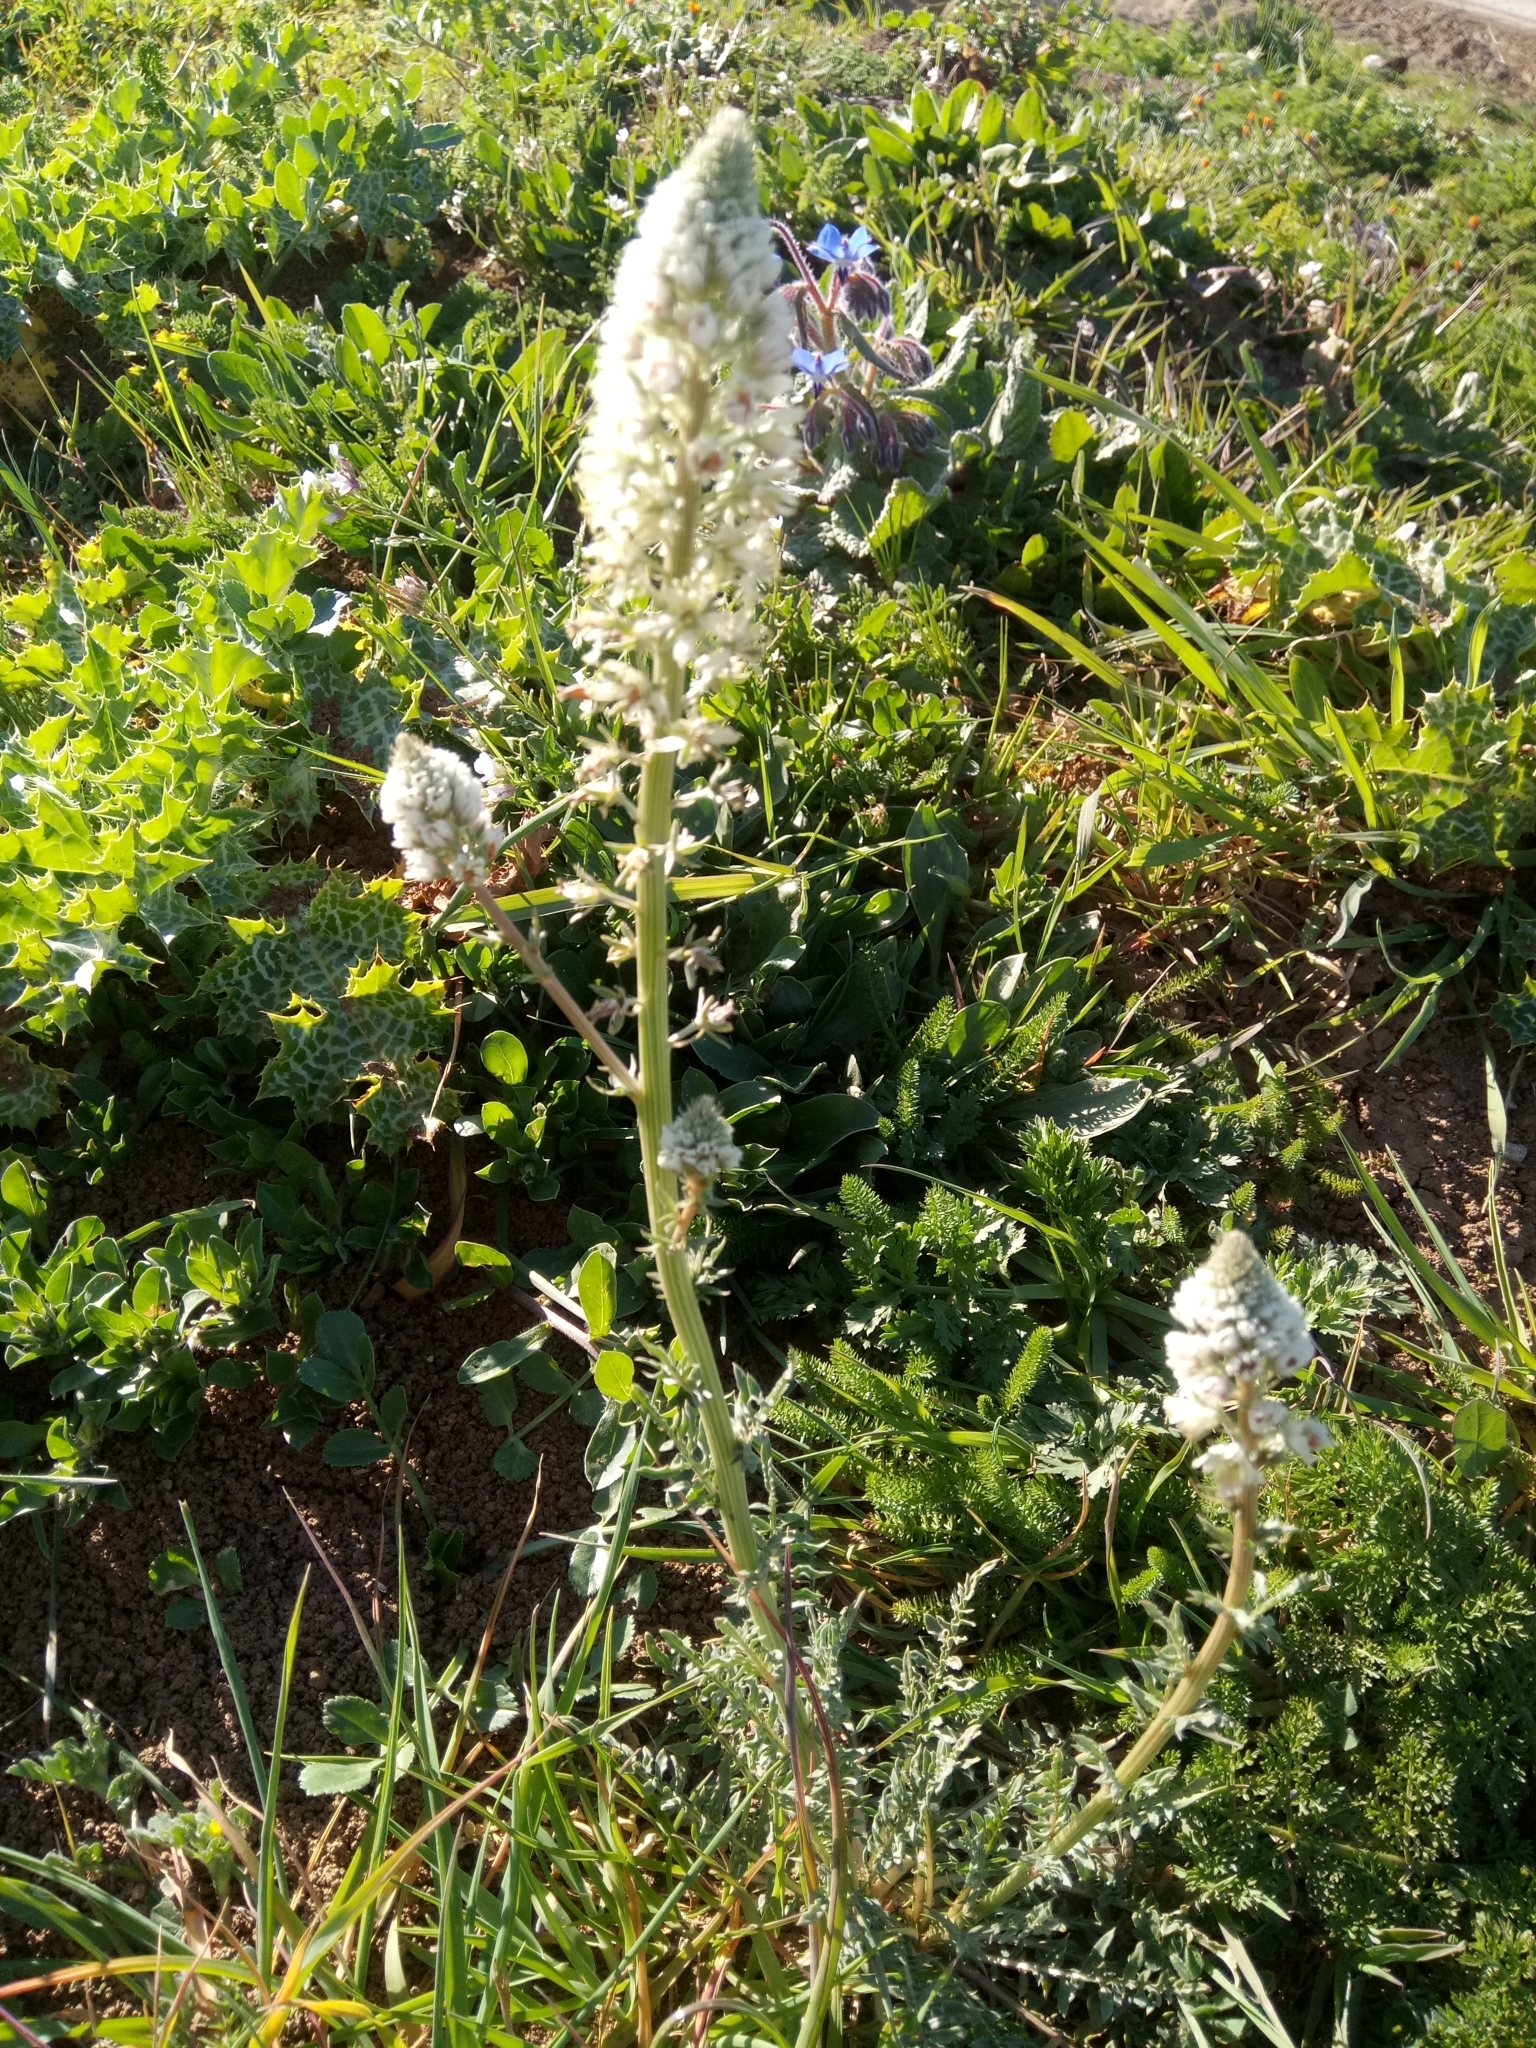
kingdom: Plantae
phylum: Tracheophyta
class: Magnoliopsida
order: Brassicales
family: Resedaceae
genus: Reseda
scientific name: Reseda alba
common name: White mignonette
